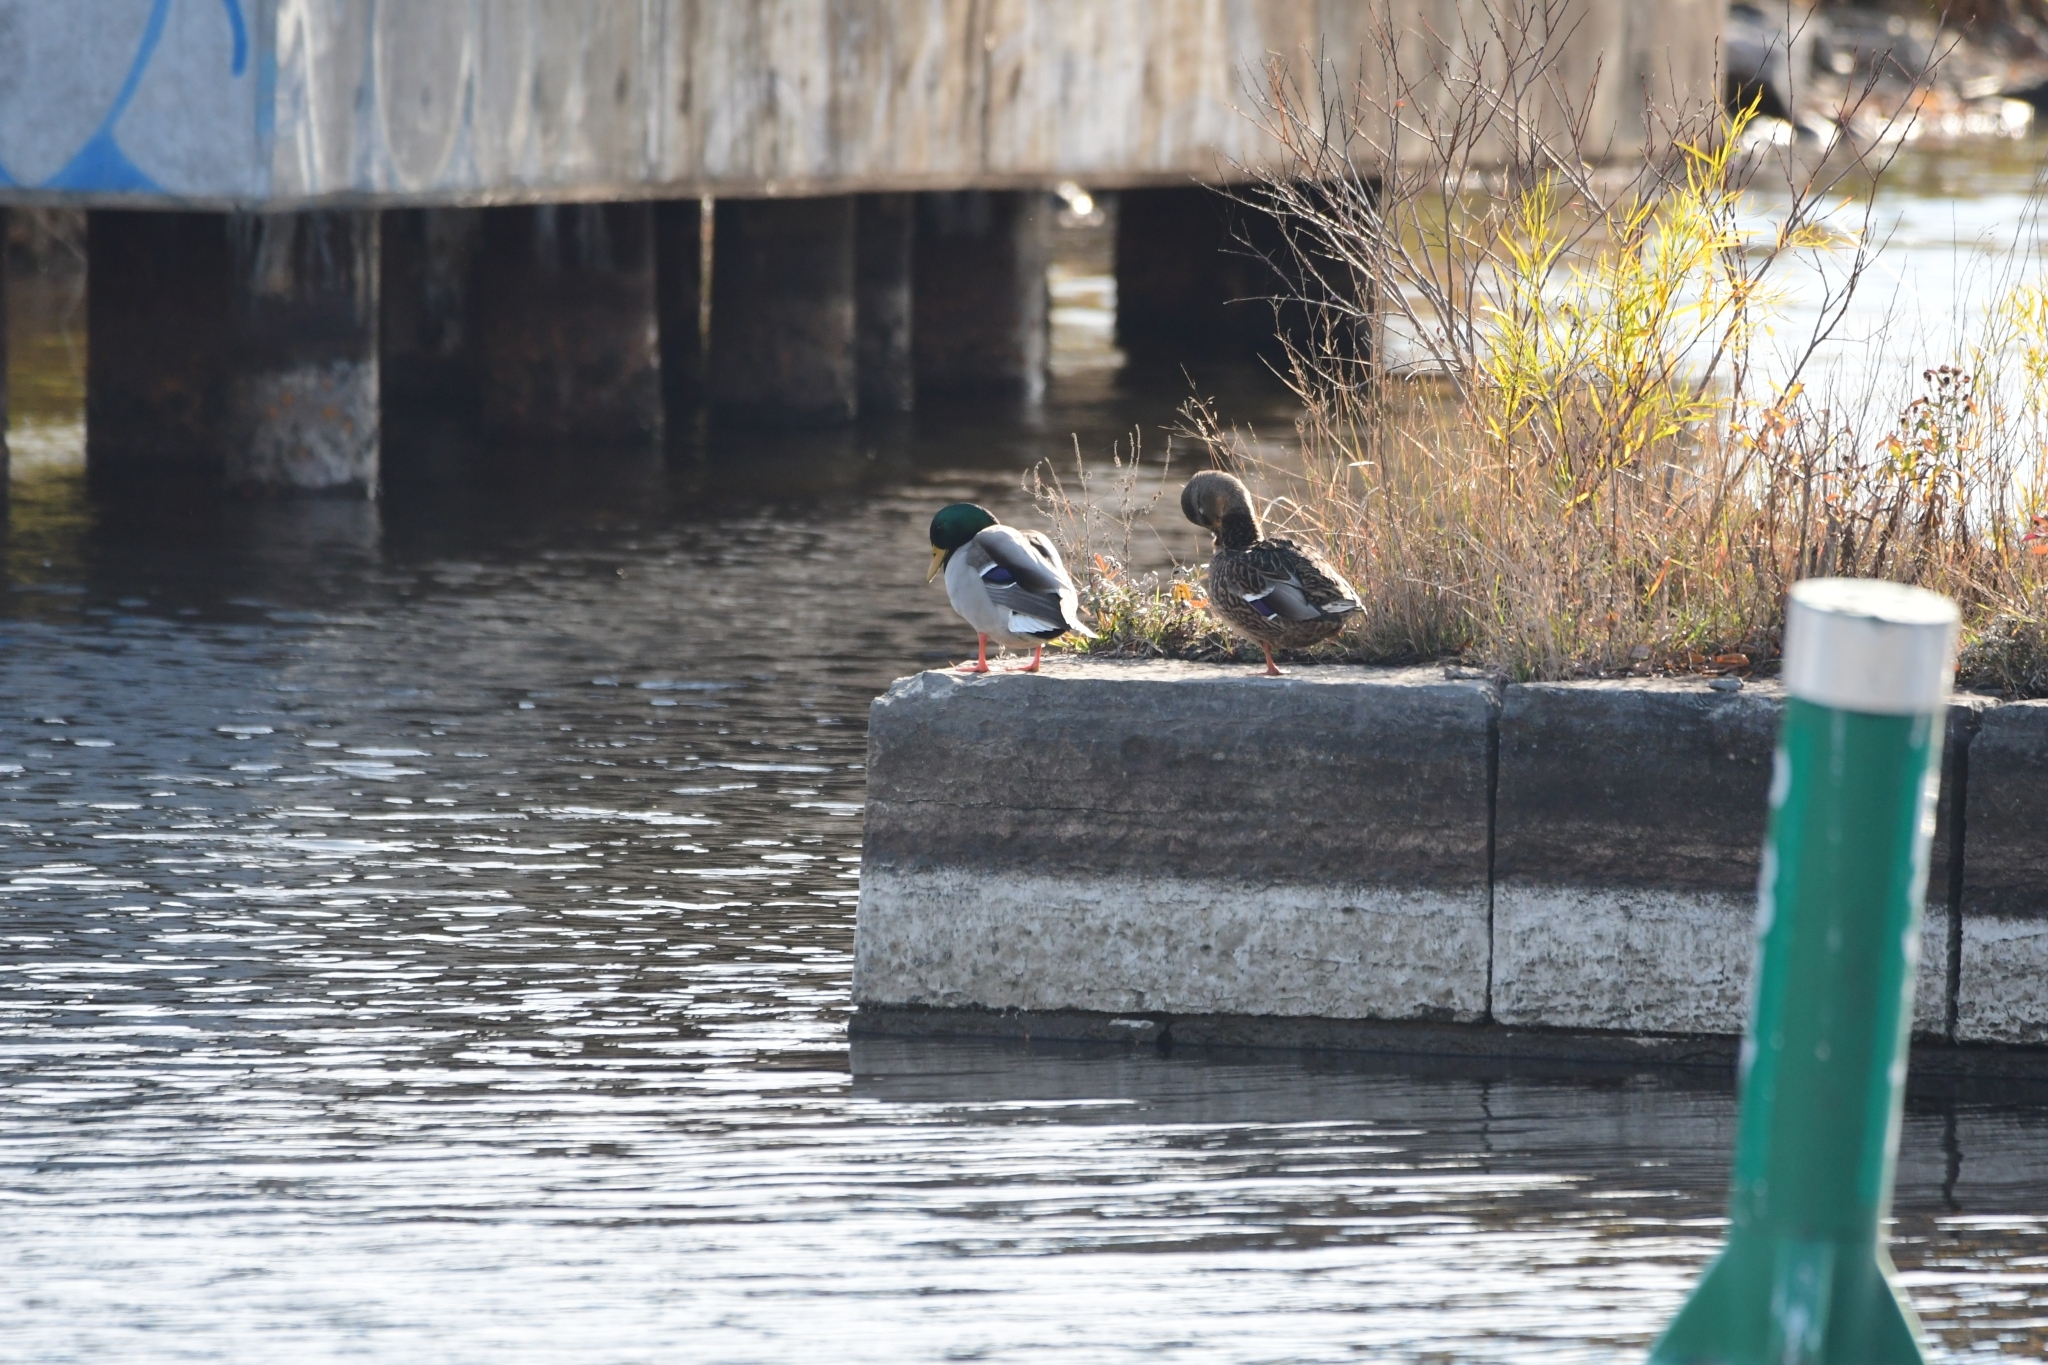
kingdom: Animalia
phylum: Chordata
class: Aves
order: Anseriformes
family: Anatidae
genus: Anas
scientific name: Anas platyrhynchos
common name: Mallard
